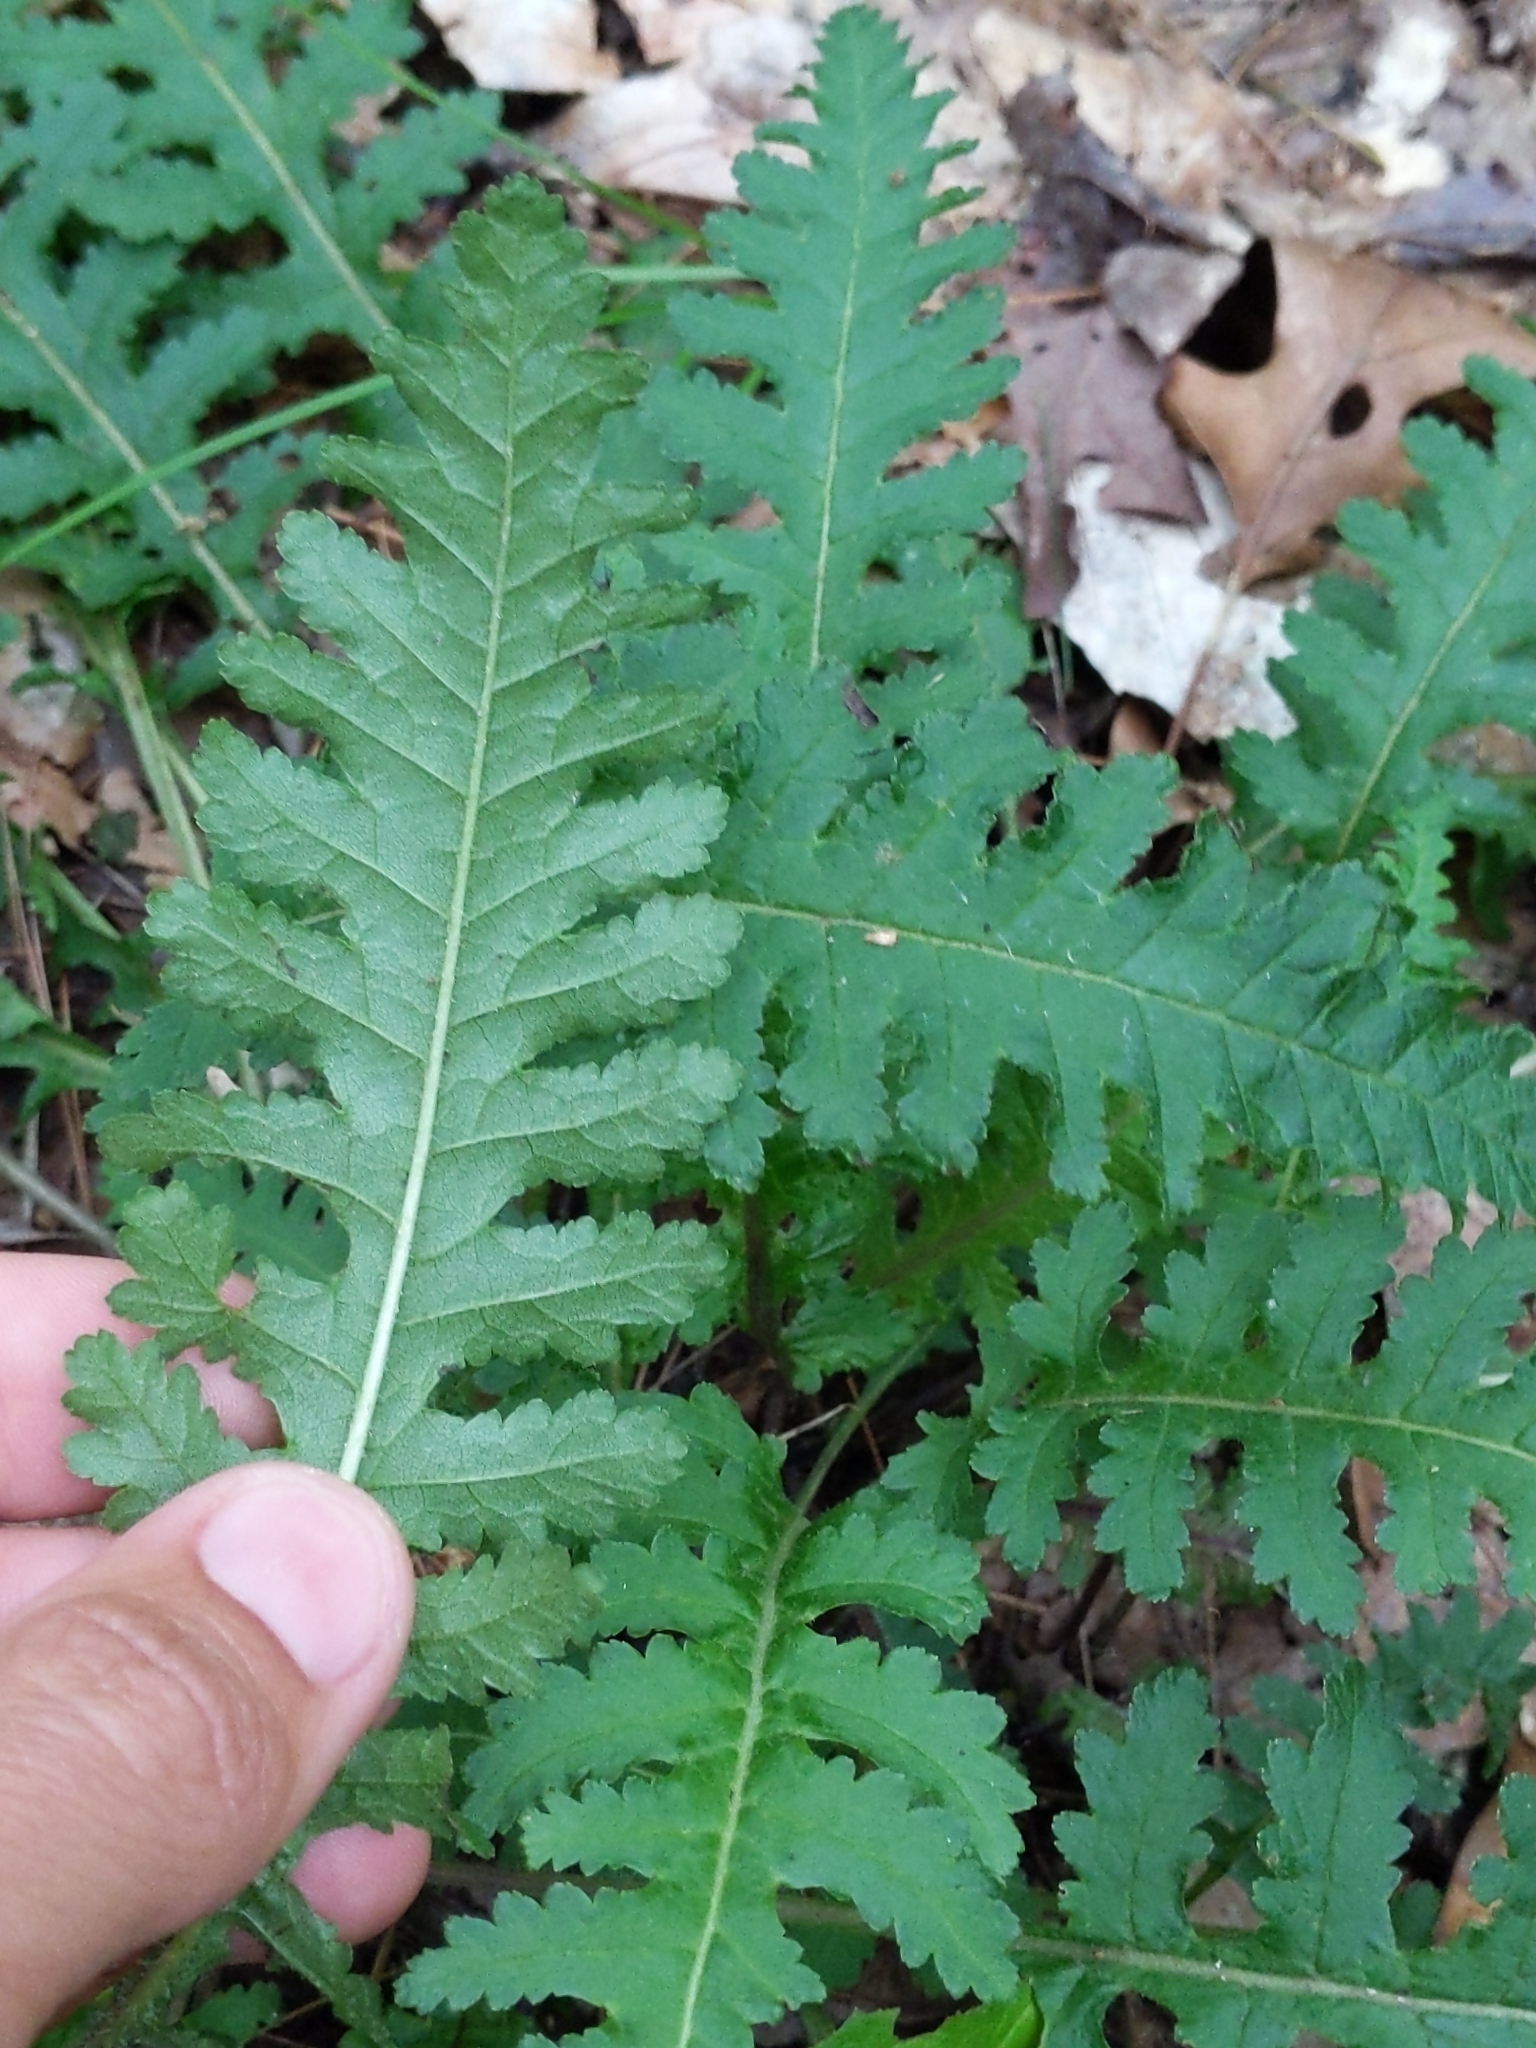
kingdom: Plantae
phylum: Tracheophyta
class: Magnoliopsida
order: Lamiales
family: Orobanchaceae
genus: Pedicularis
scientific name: Pedicularis canadensis
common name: Early lousewort
